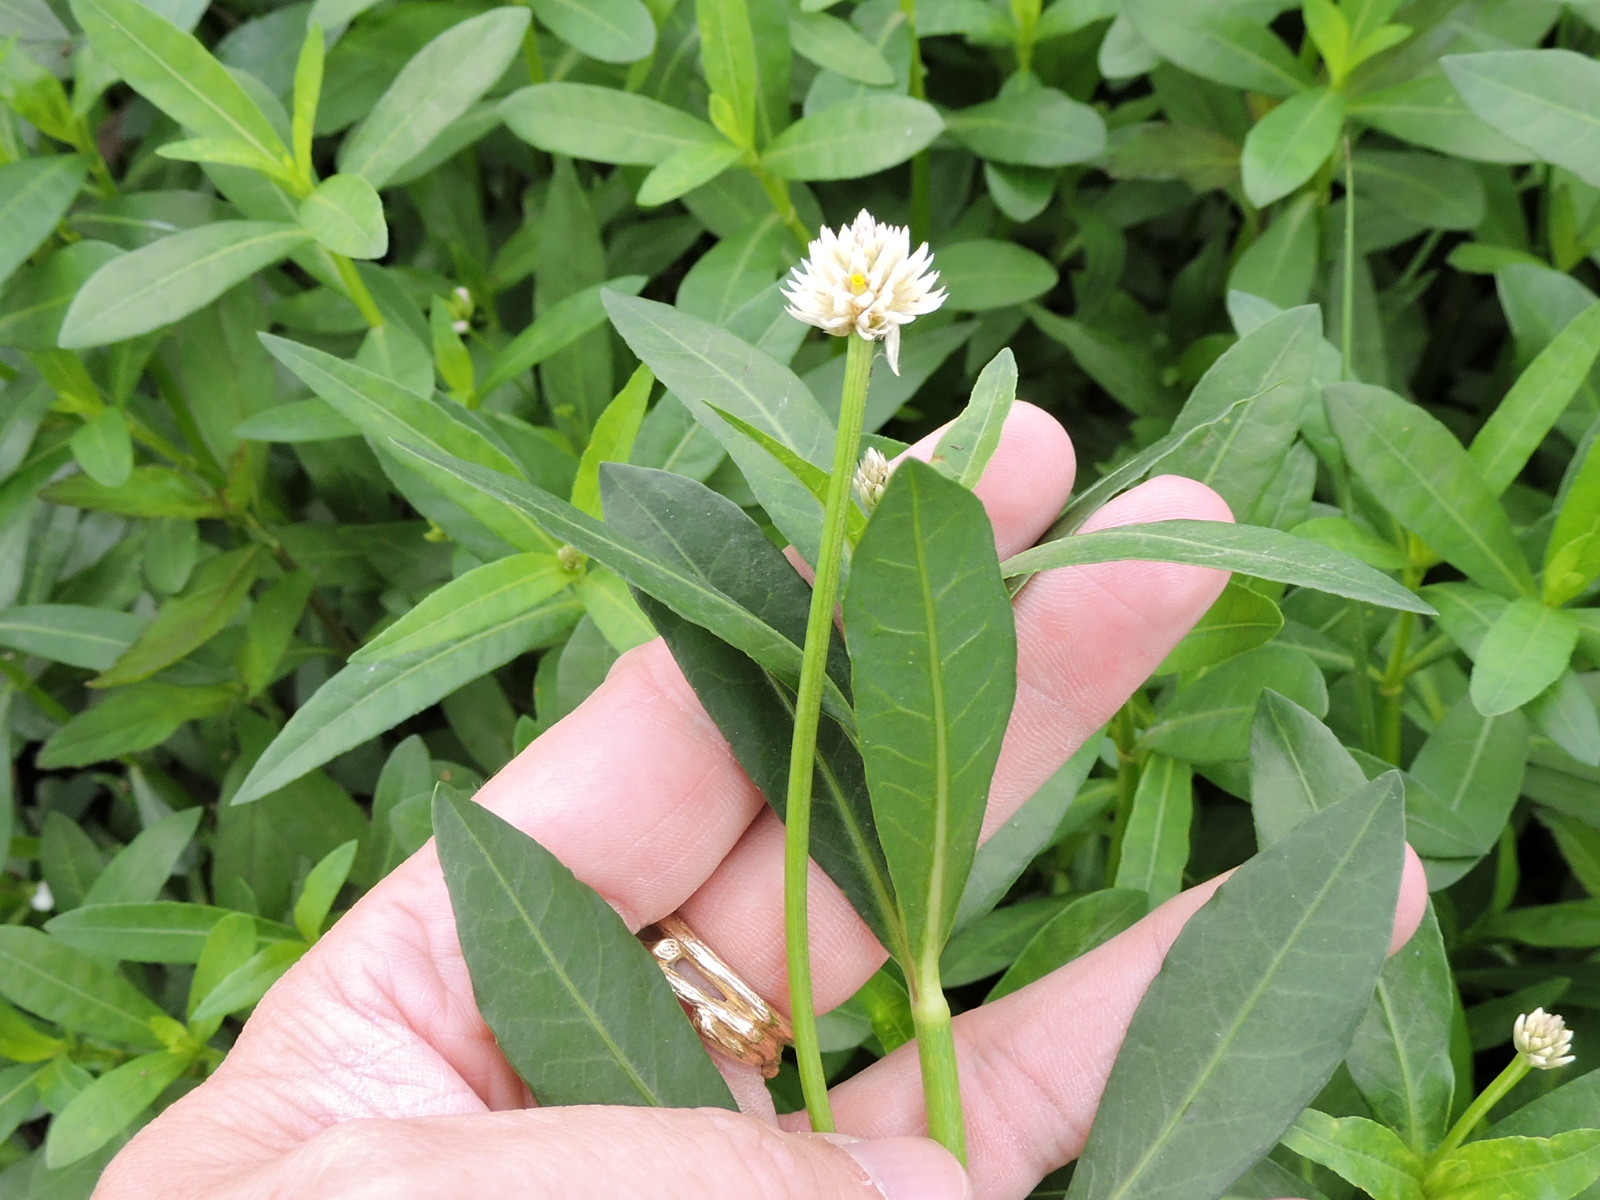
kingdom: Plantae
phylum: Tracheophyta
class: Magnoliopsida
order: Caryophyllales
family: Amaranthaceae
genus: Alternanthera
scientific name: Alternanthera philoxeroides
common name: Alligatorweed
